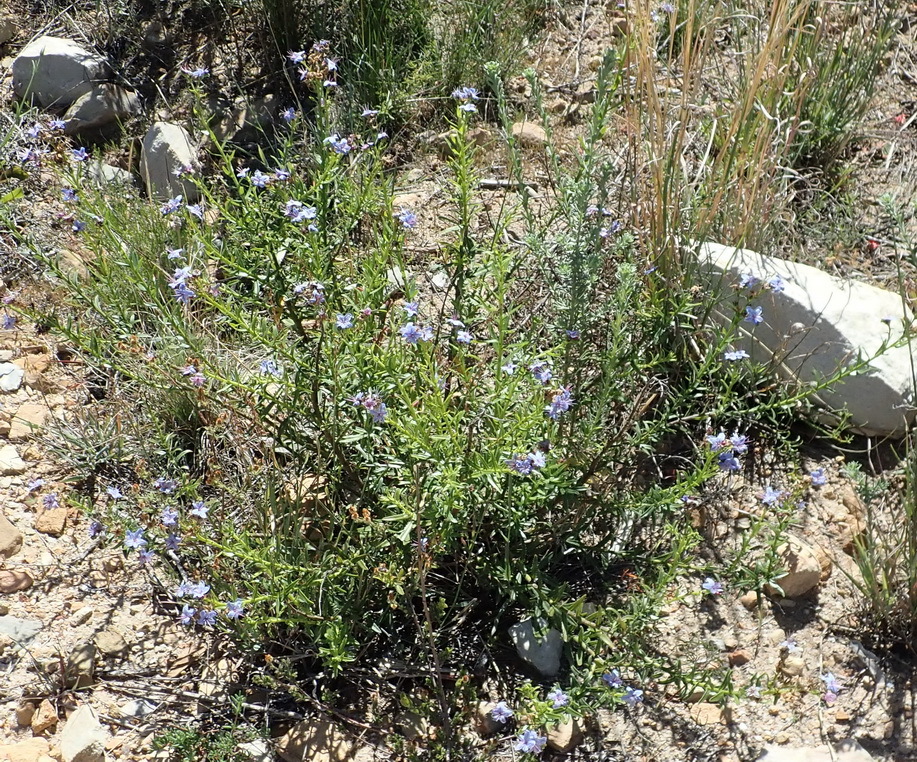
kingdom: Plantae
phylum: Tracheophyta
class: Magnoliopsida
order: Boraginales
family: Boraginaceae
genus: Lobostemon
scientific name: Lobostemon paniculatus
